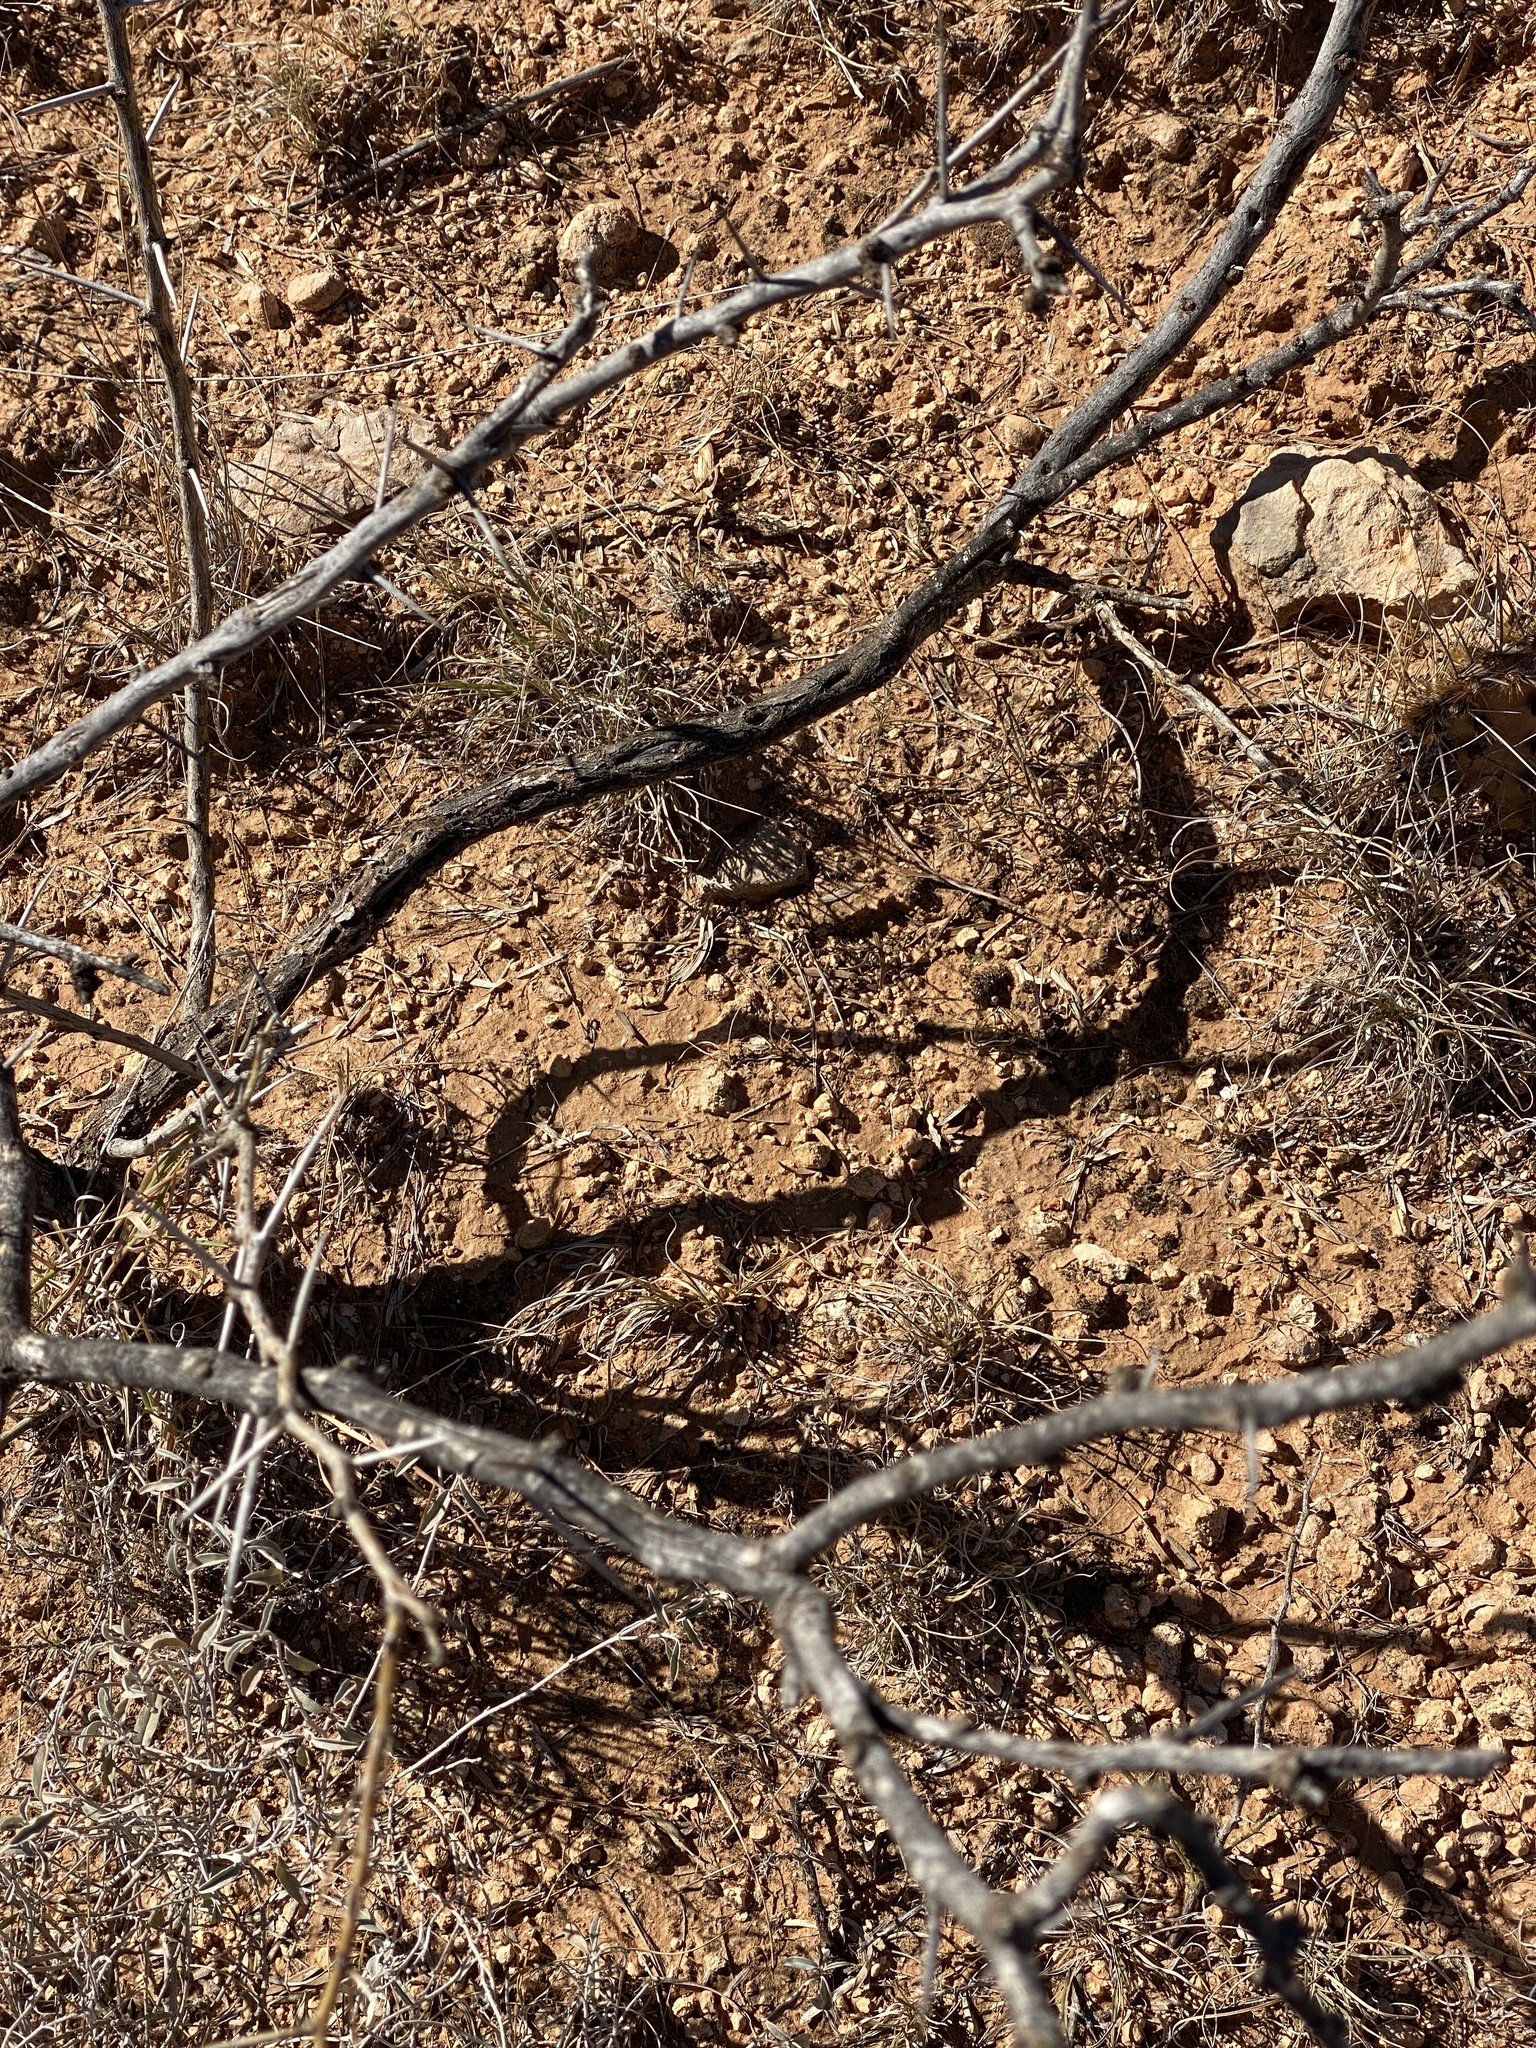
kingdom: Plantae
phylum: Tracheophyta
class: Magnoliopsida
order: Fabales
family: Fabaceae
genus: Prosopis
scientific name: Prosopis glandulosa
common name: Honey mesquite
